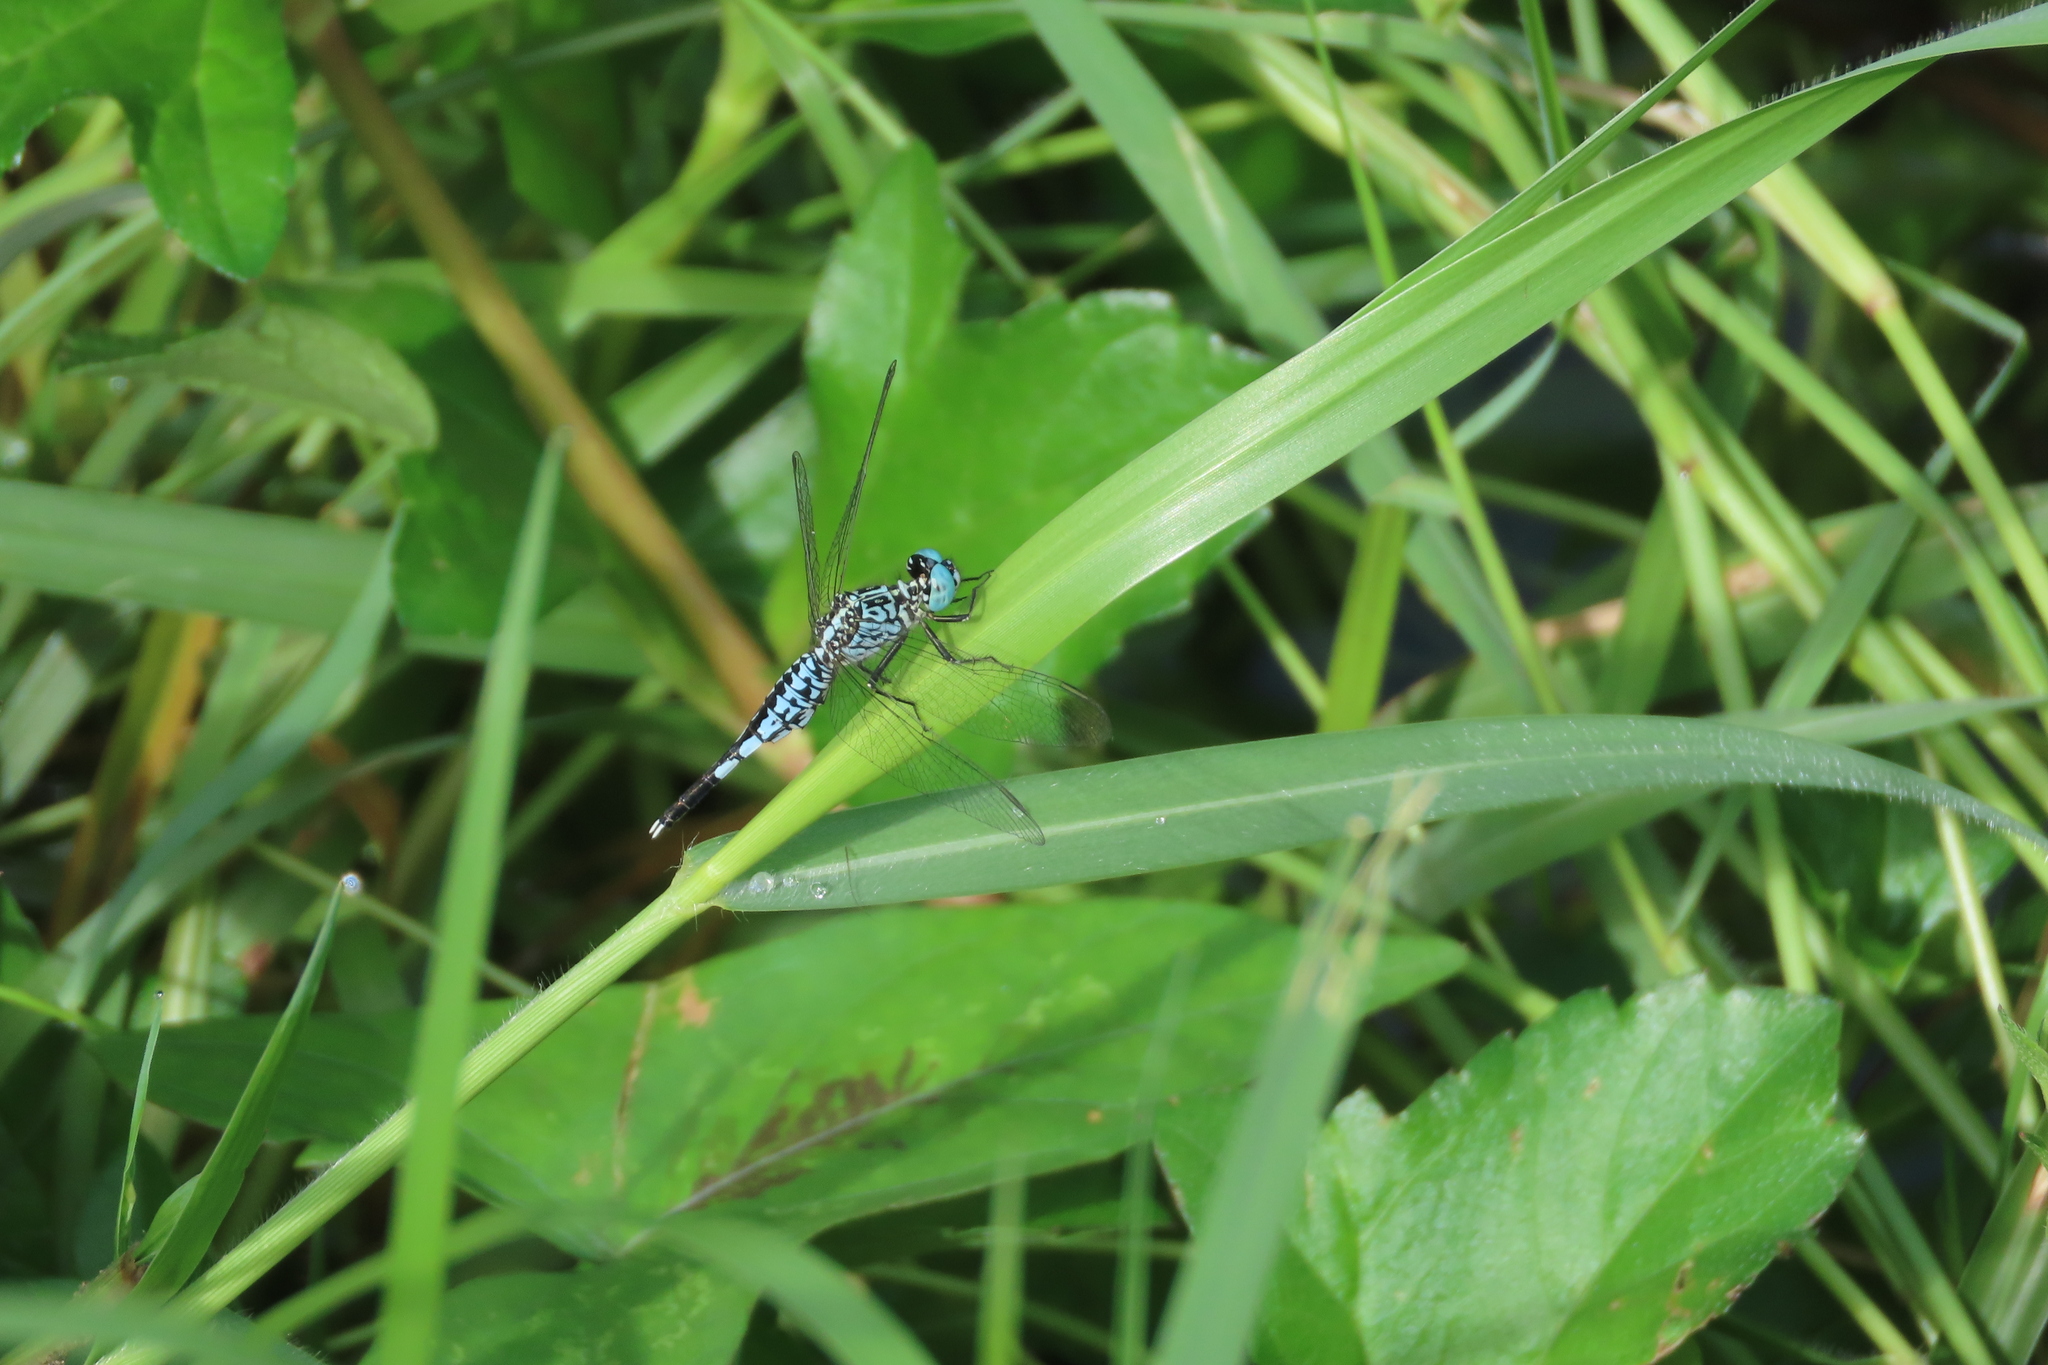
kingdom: Animalia
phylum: Arthropoda
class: Insecta
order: Odonata
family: Libellulidae
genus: Acisoma
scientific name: Acisoma panorpoides
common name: Asian pintail
